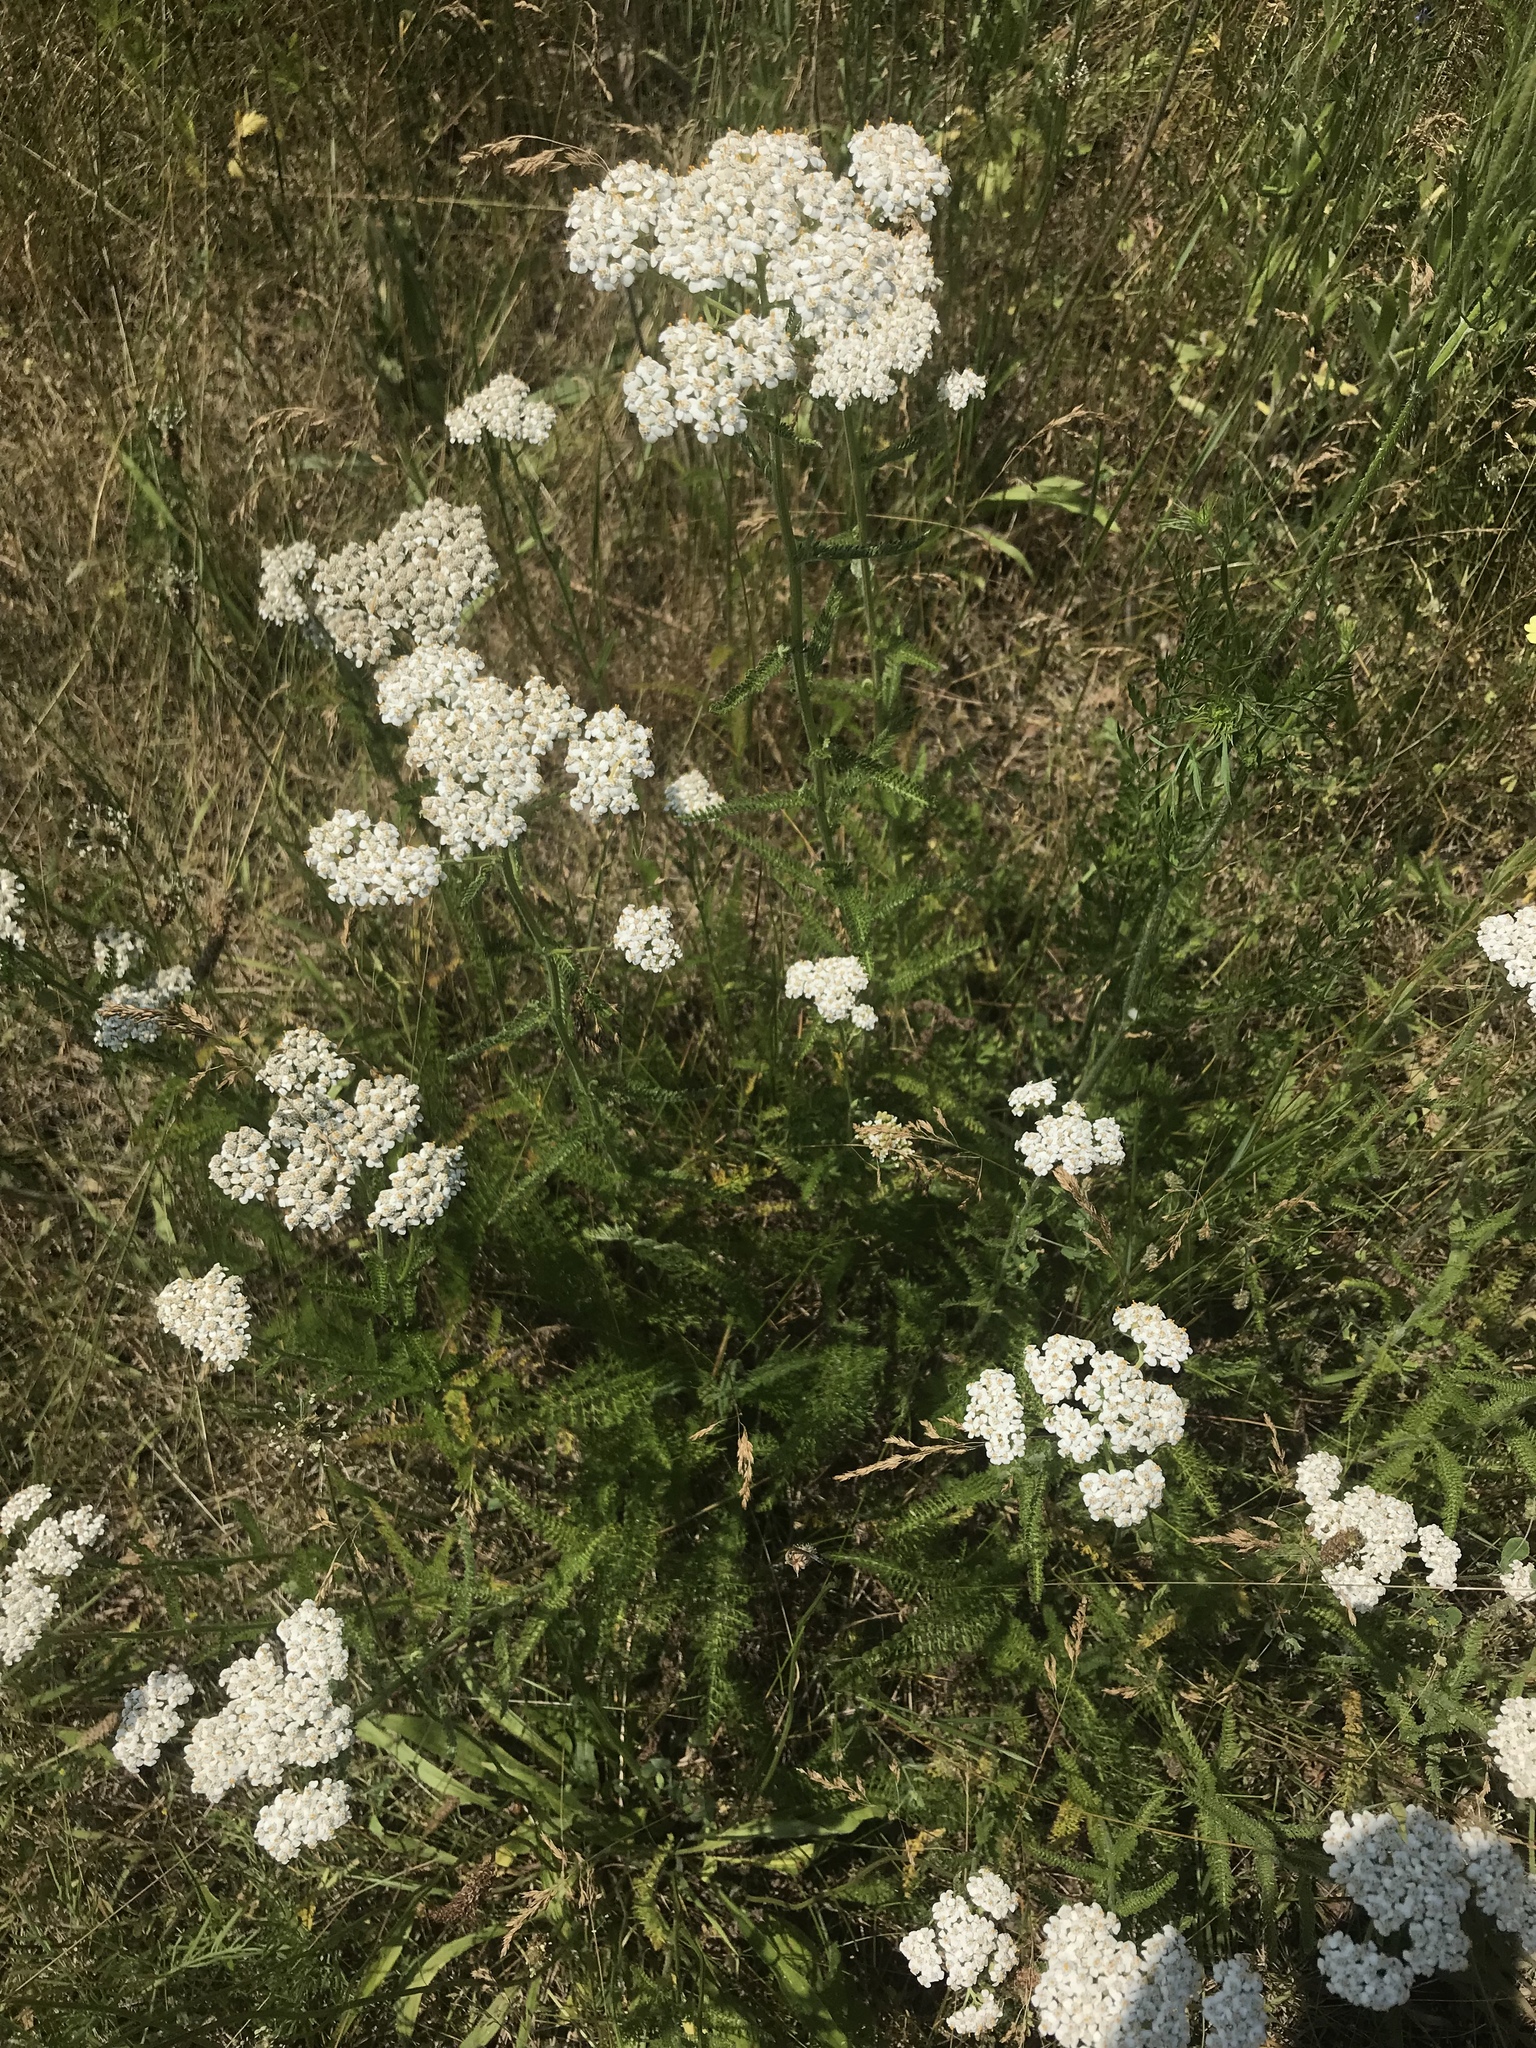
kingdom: Plantae
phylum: Tracheophyta
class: Magnoliopsida
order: Asterales
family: Asteraceae
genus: Achillea
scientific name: Achillea millefolium
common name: Yarrow
